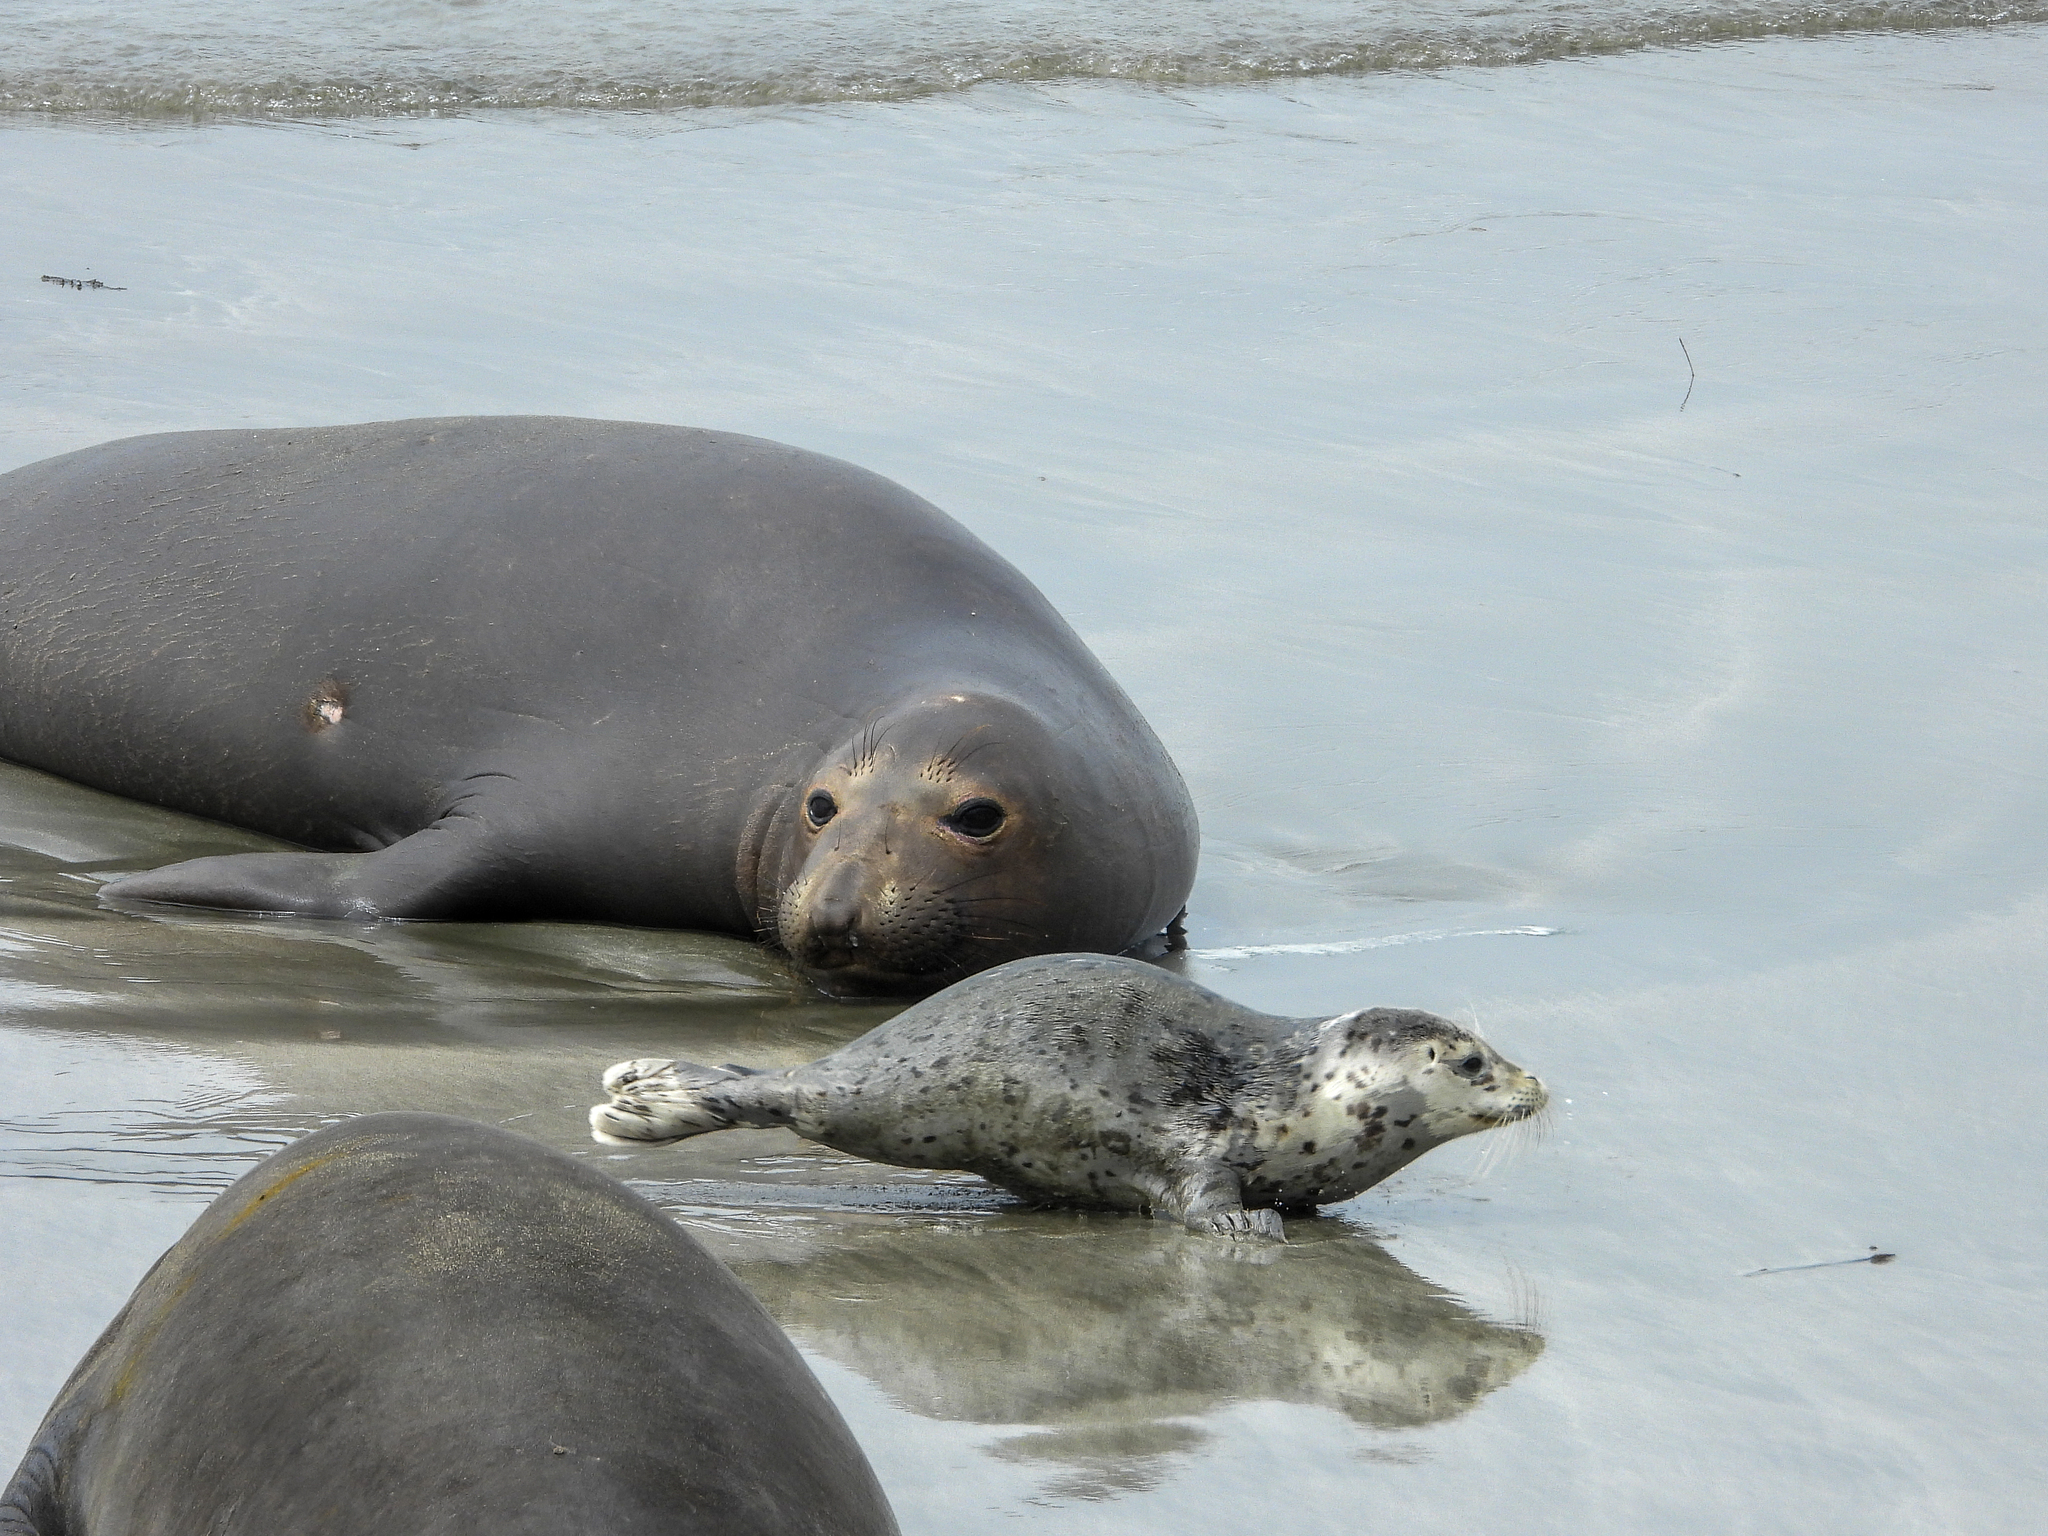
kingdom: Animalia
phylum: Chordata
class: Mammalia
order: Carnivora
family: Phocidae
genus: Phoca
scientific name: Phoca vitulina
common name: Harbor seal
